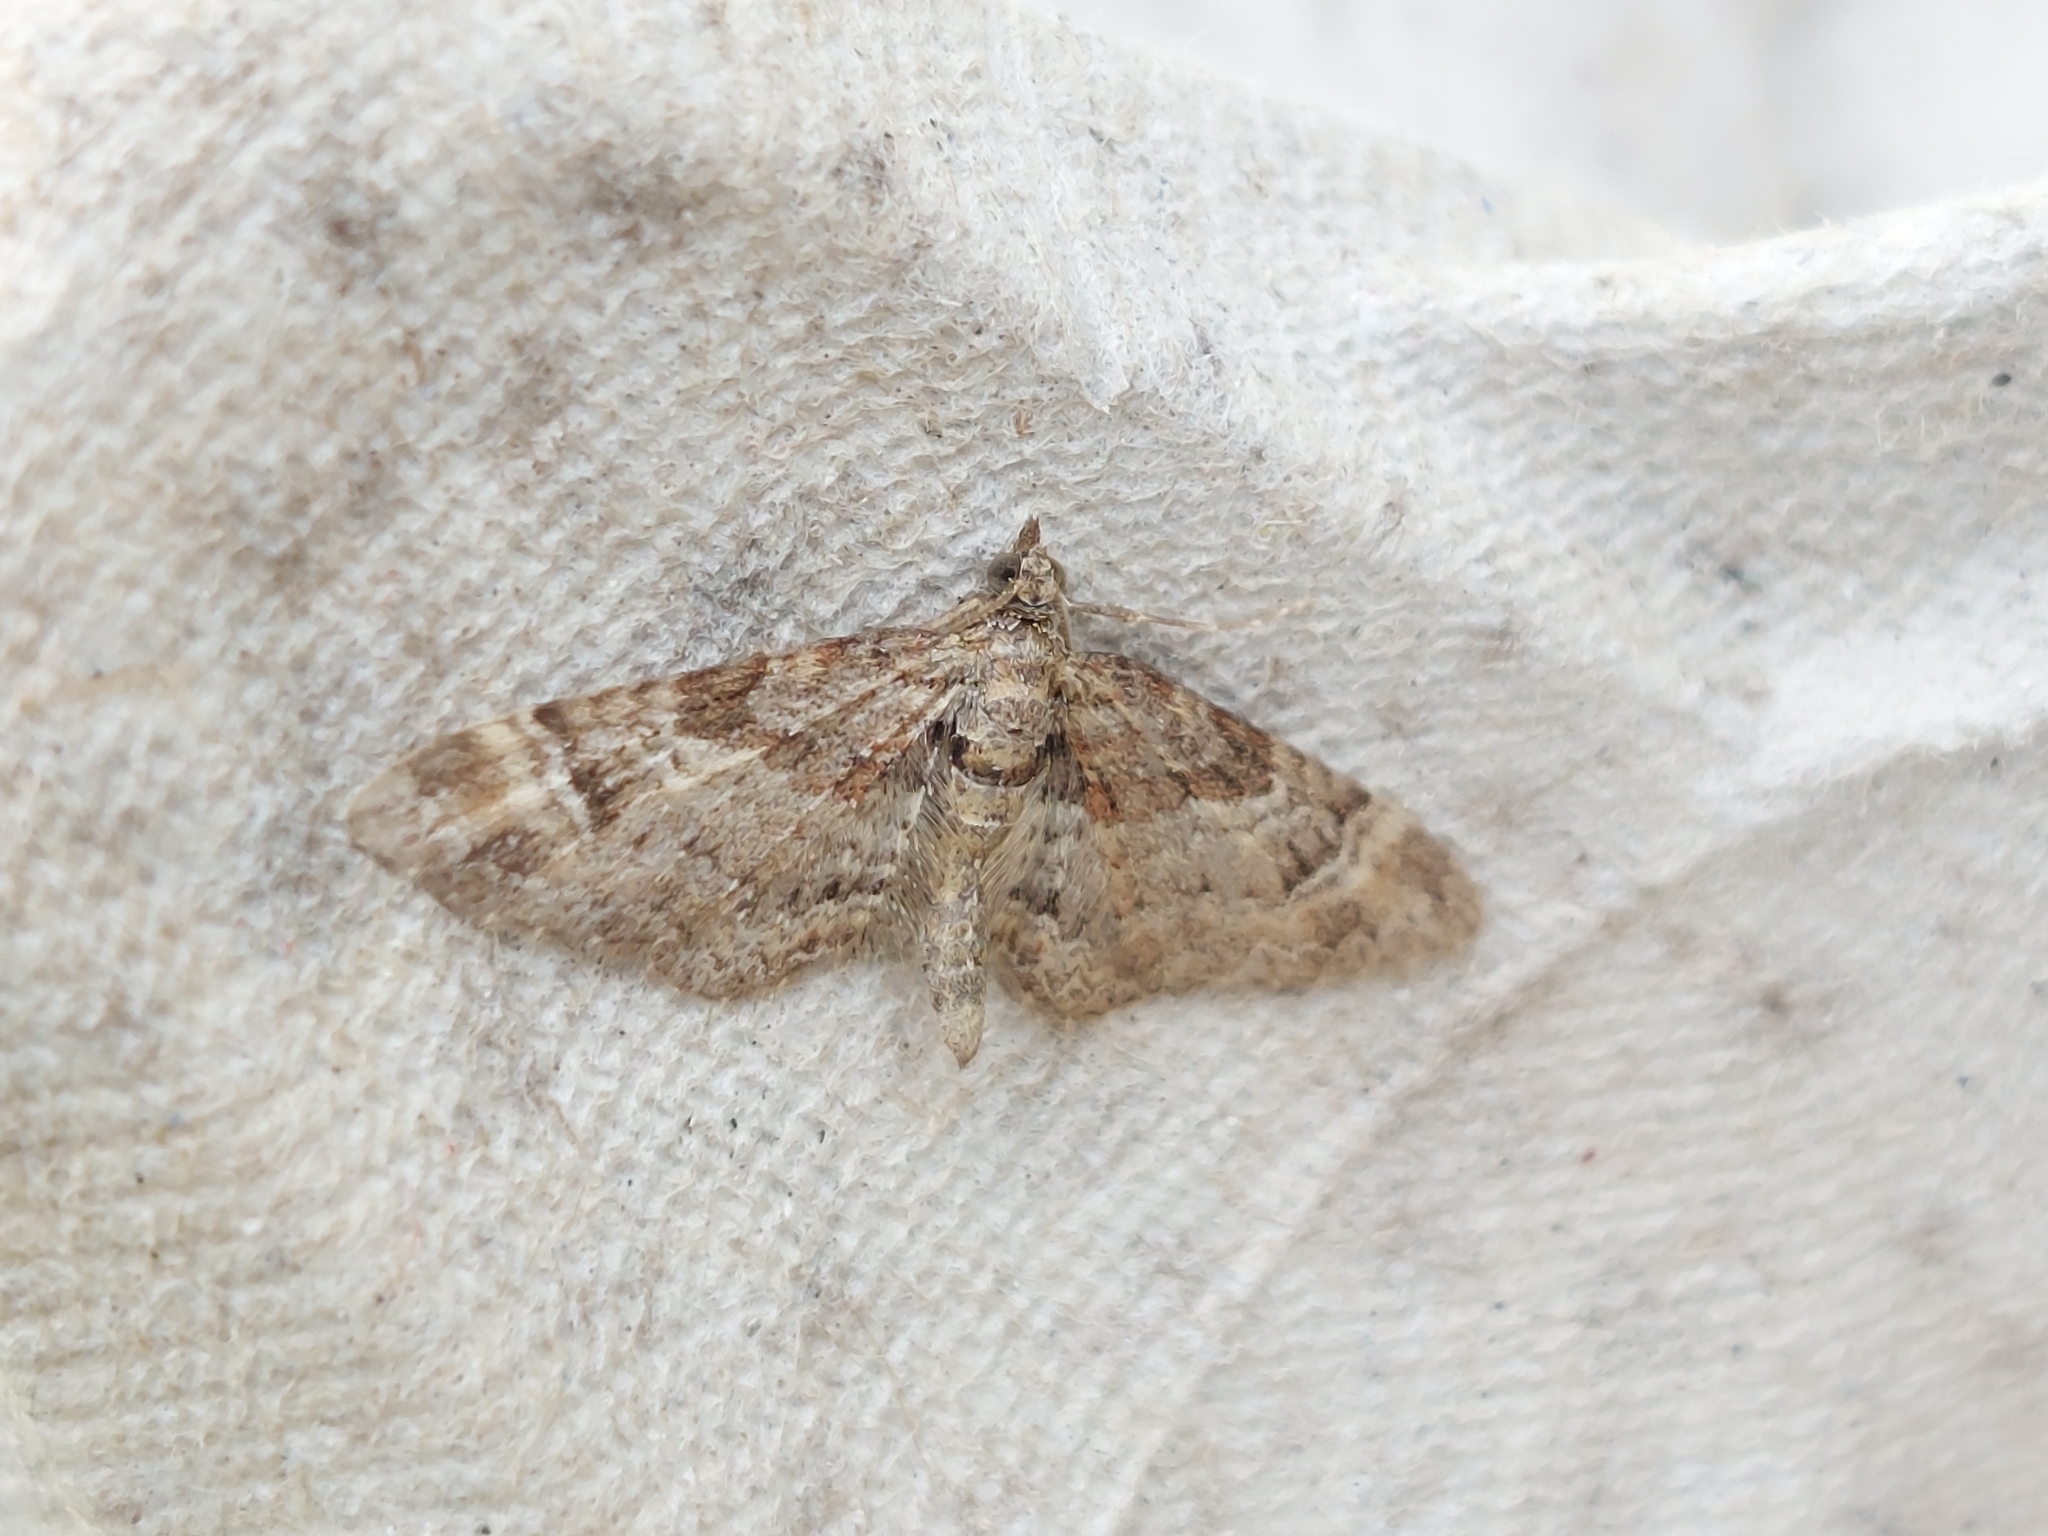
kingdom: Animalia
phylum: Arthropoda
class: Insecta
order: Lepidoptera
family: Geometridae
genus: Gymnoscelis
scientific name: Gymnoscelis rufifasciata
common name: Double-striped pug
